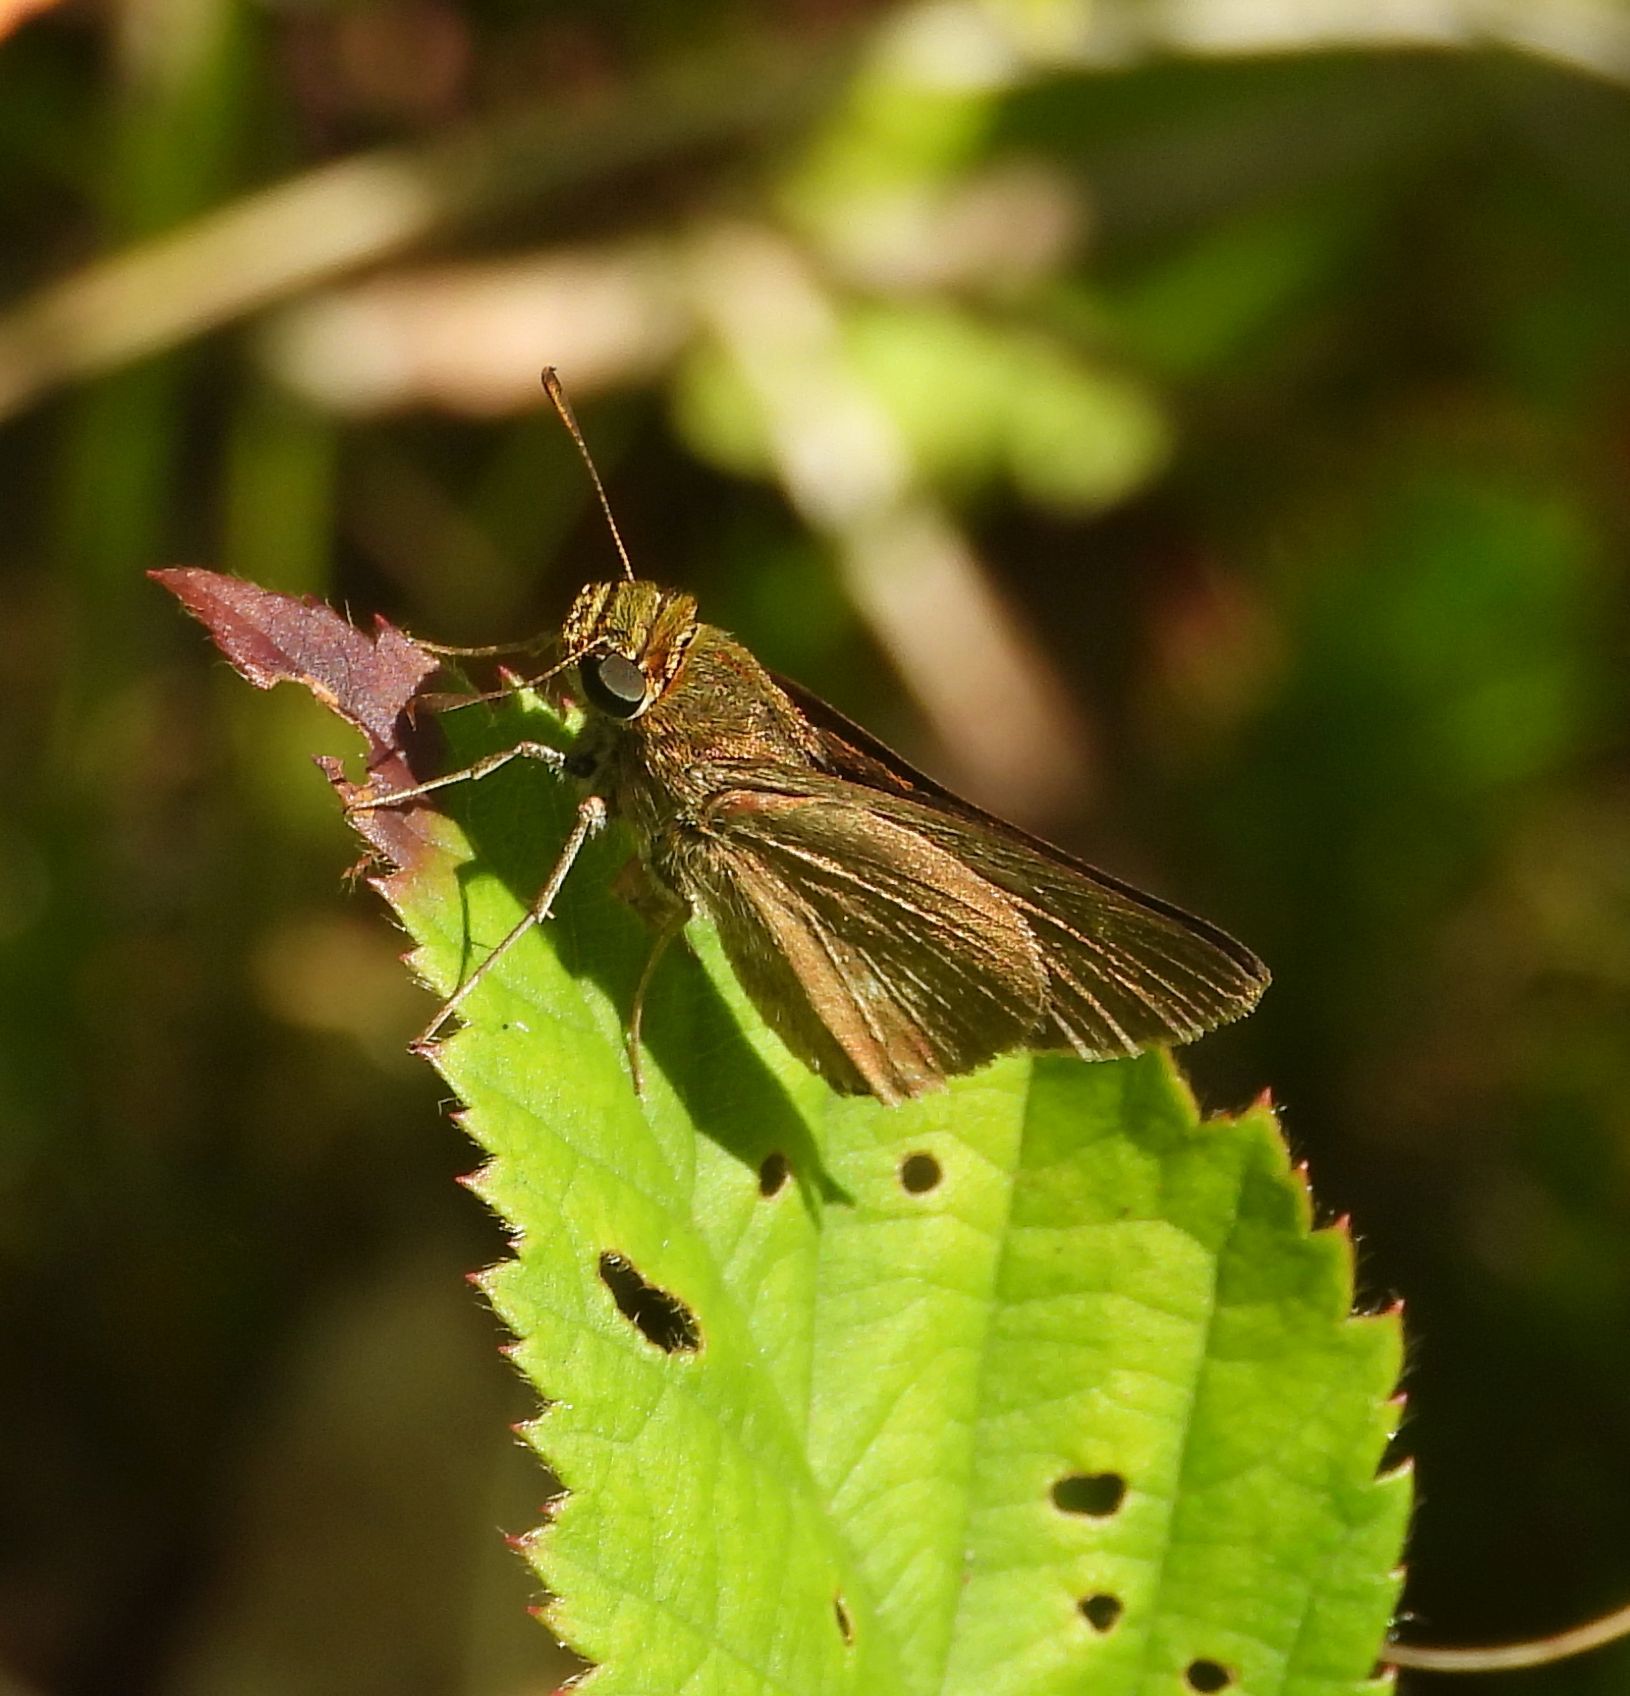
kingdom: Animalia
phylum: Arthropoda
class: Insecta
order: Lepidoptera
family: Hesperiidae
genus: Euphyes
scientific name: Euphyes vestris
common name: Dun skipper
